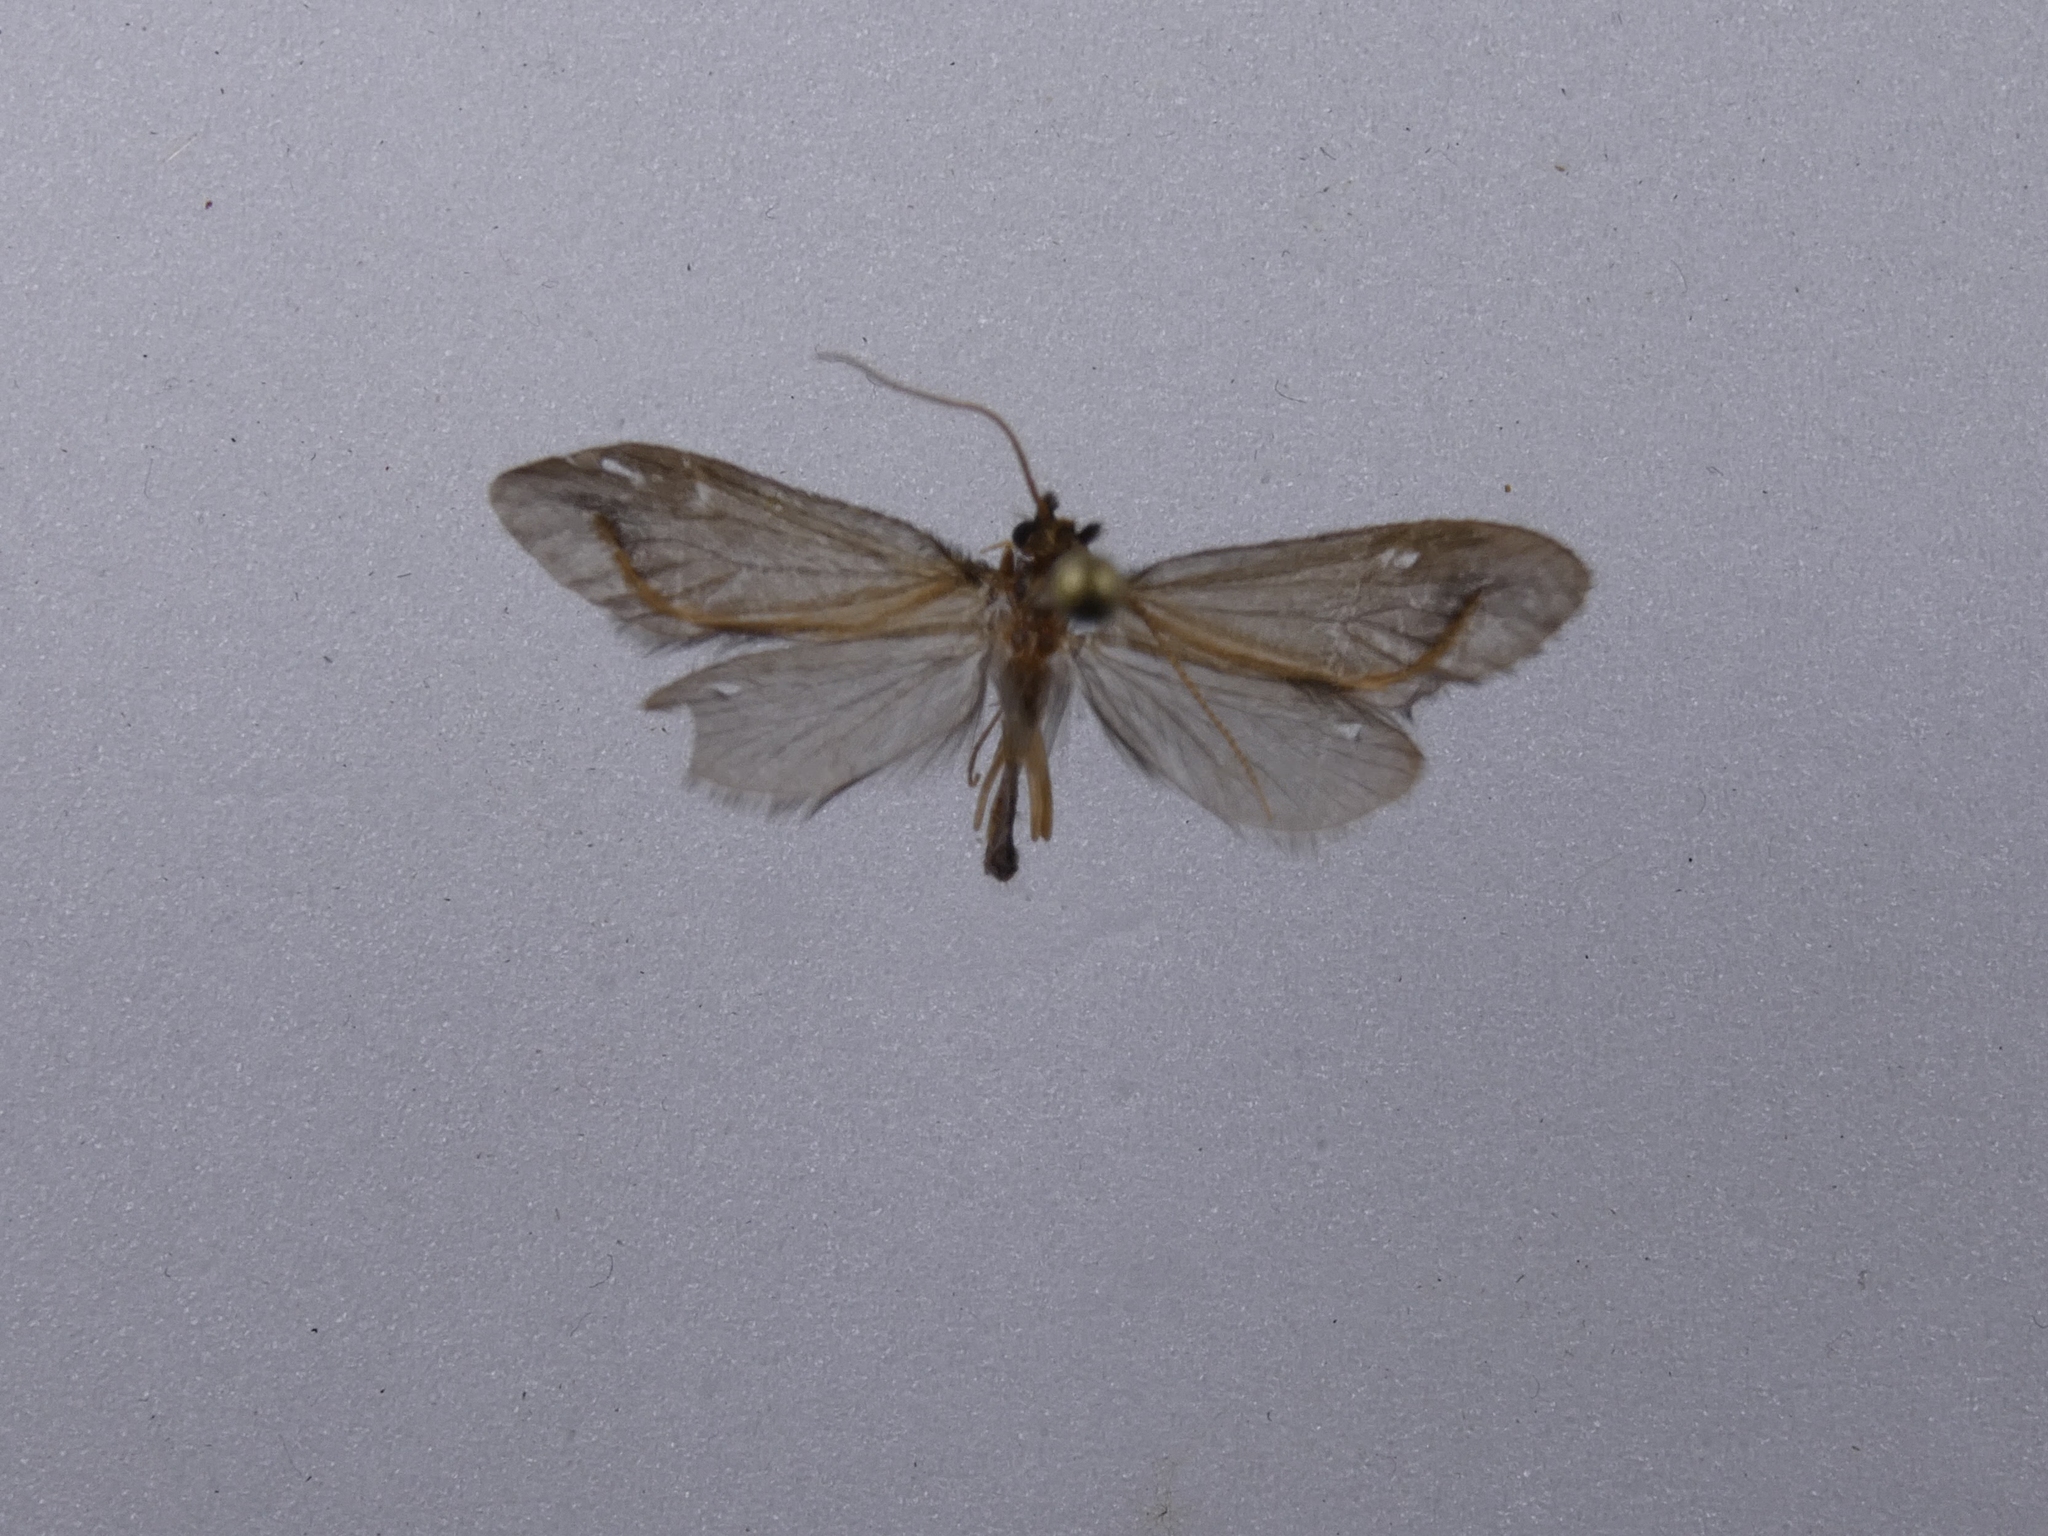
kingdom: Animalia
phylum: Arthropoda
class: Insecta
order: Trichoptera
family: Conoesucidae
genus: Olinga
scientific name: Olinga feredayi
